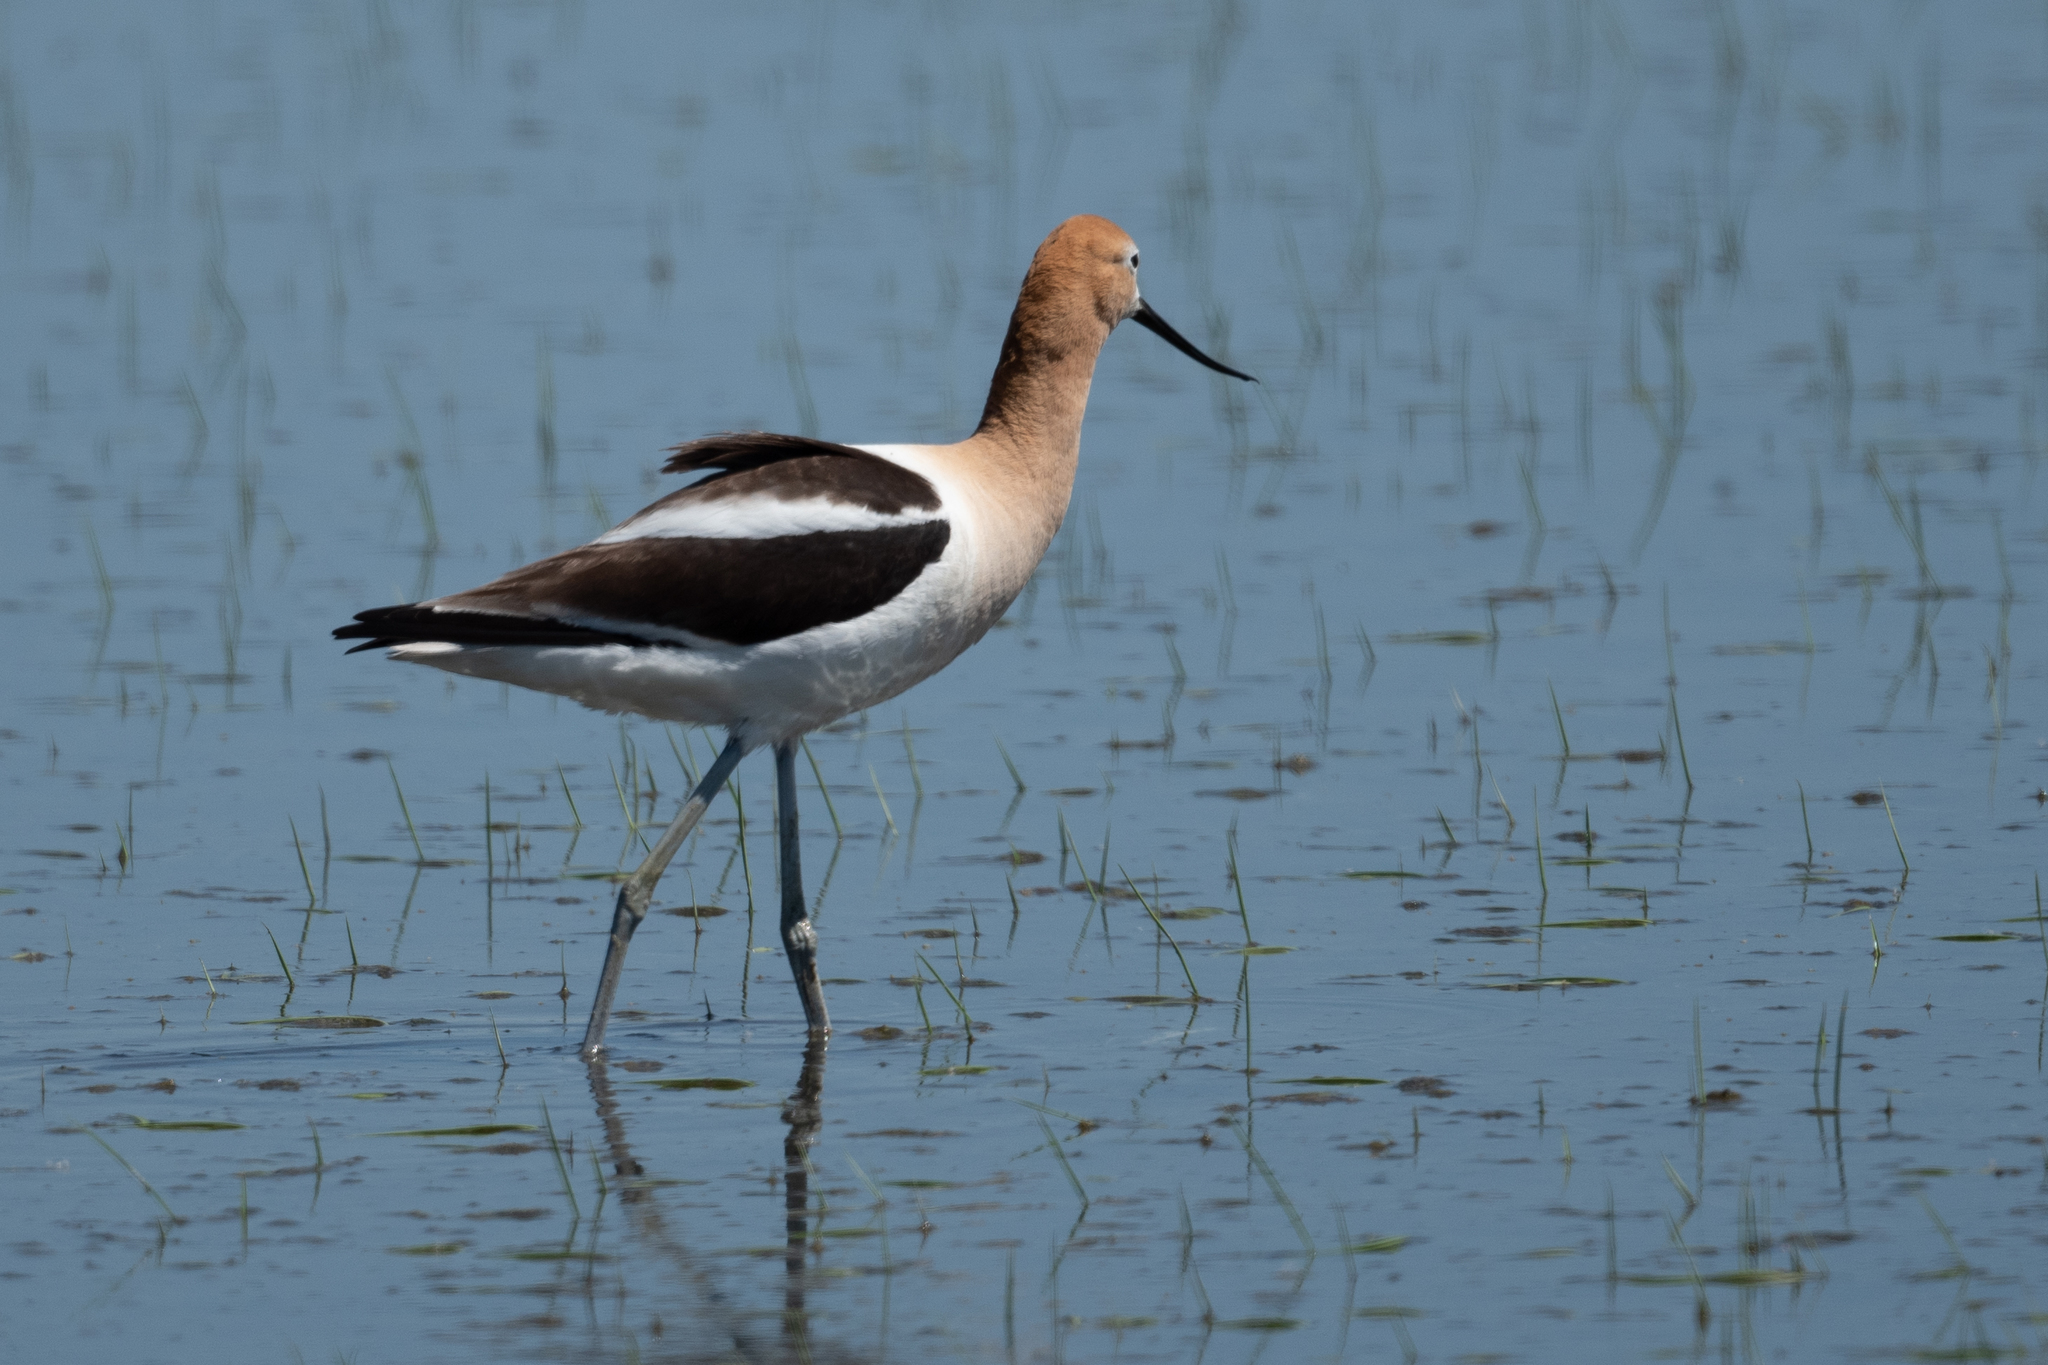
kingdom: Animalia
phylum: Chordata
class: Aves
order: Charadriiformes
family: Recurvirostridae
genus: Recurvirostra
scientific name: Recurvirostra americana
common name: American avocet
